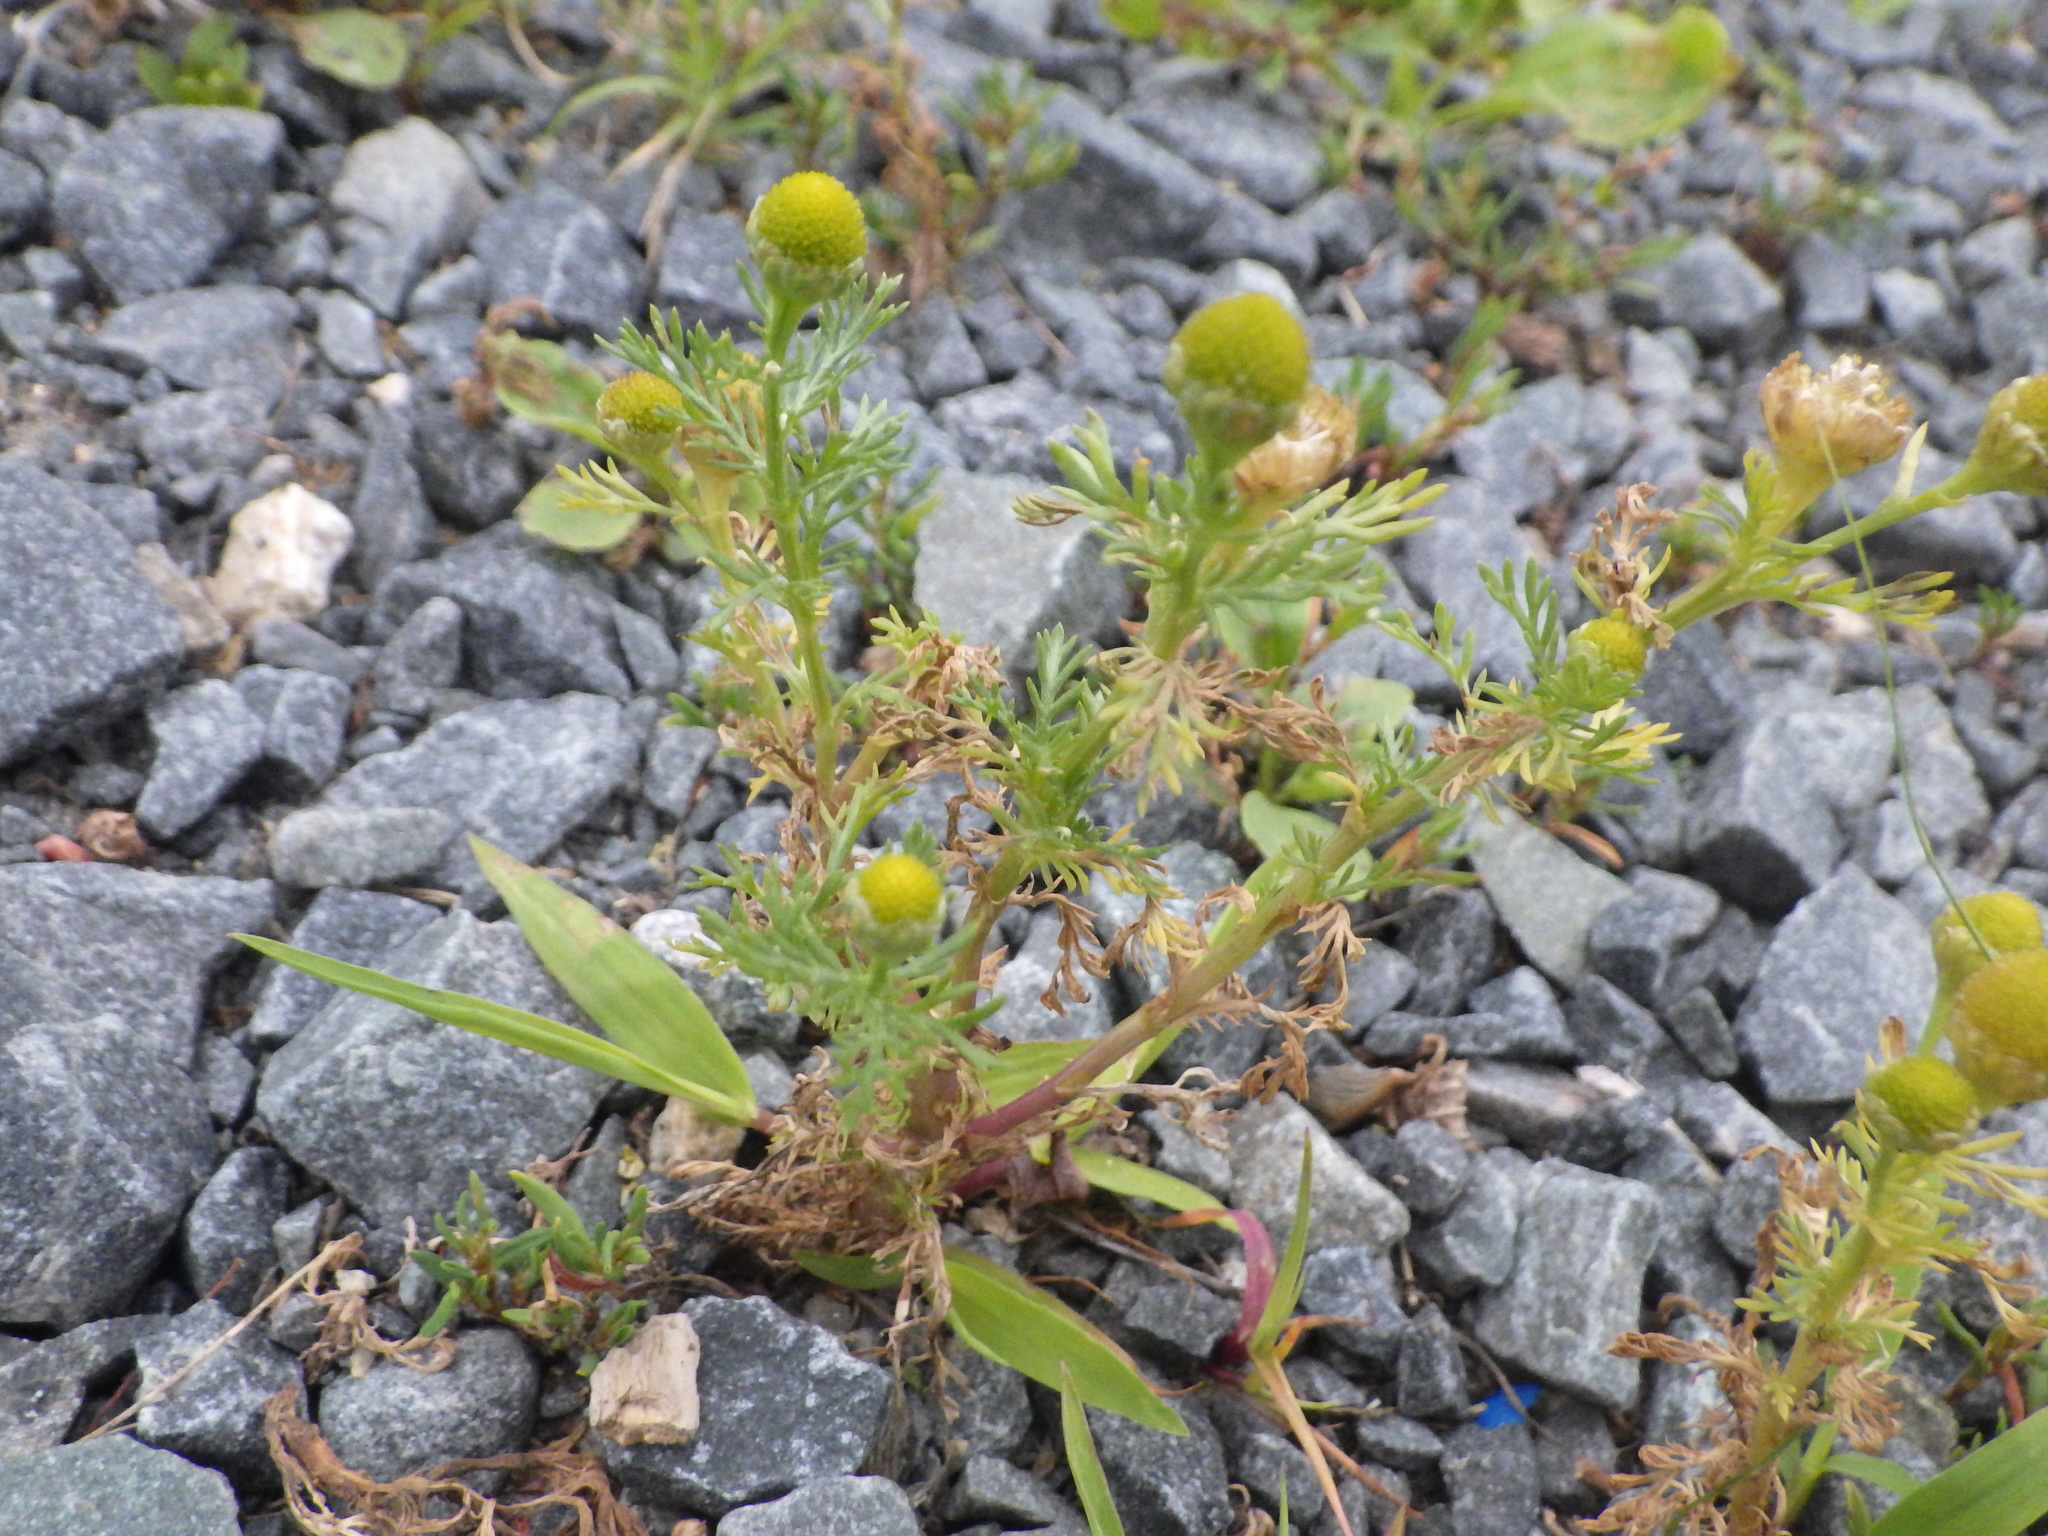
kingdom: Plantae
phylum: Tracheophyta
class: Magnoliopsida
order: Asterales
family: Asteraceae
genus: Matricaria
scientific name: Matricaria discoidea
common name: Disc mayweed
